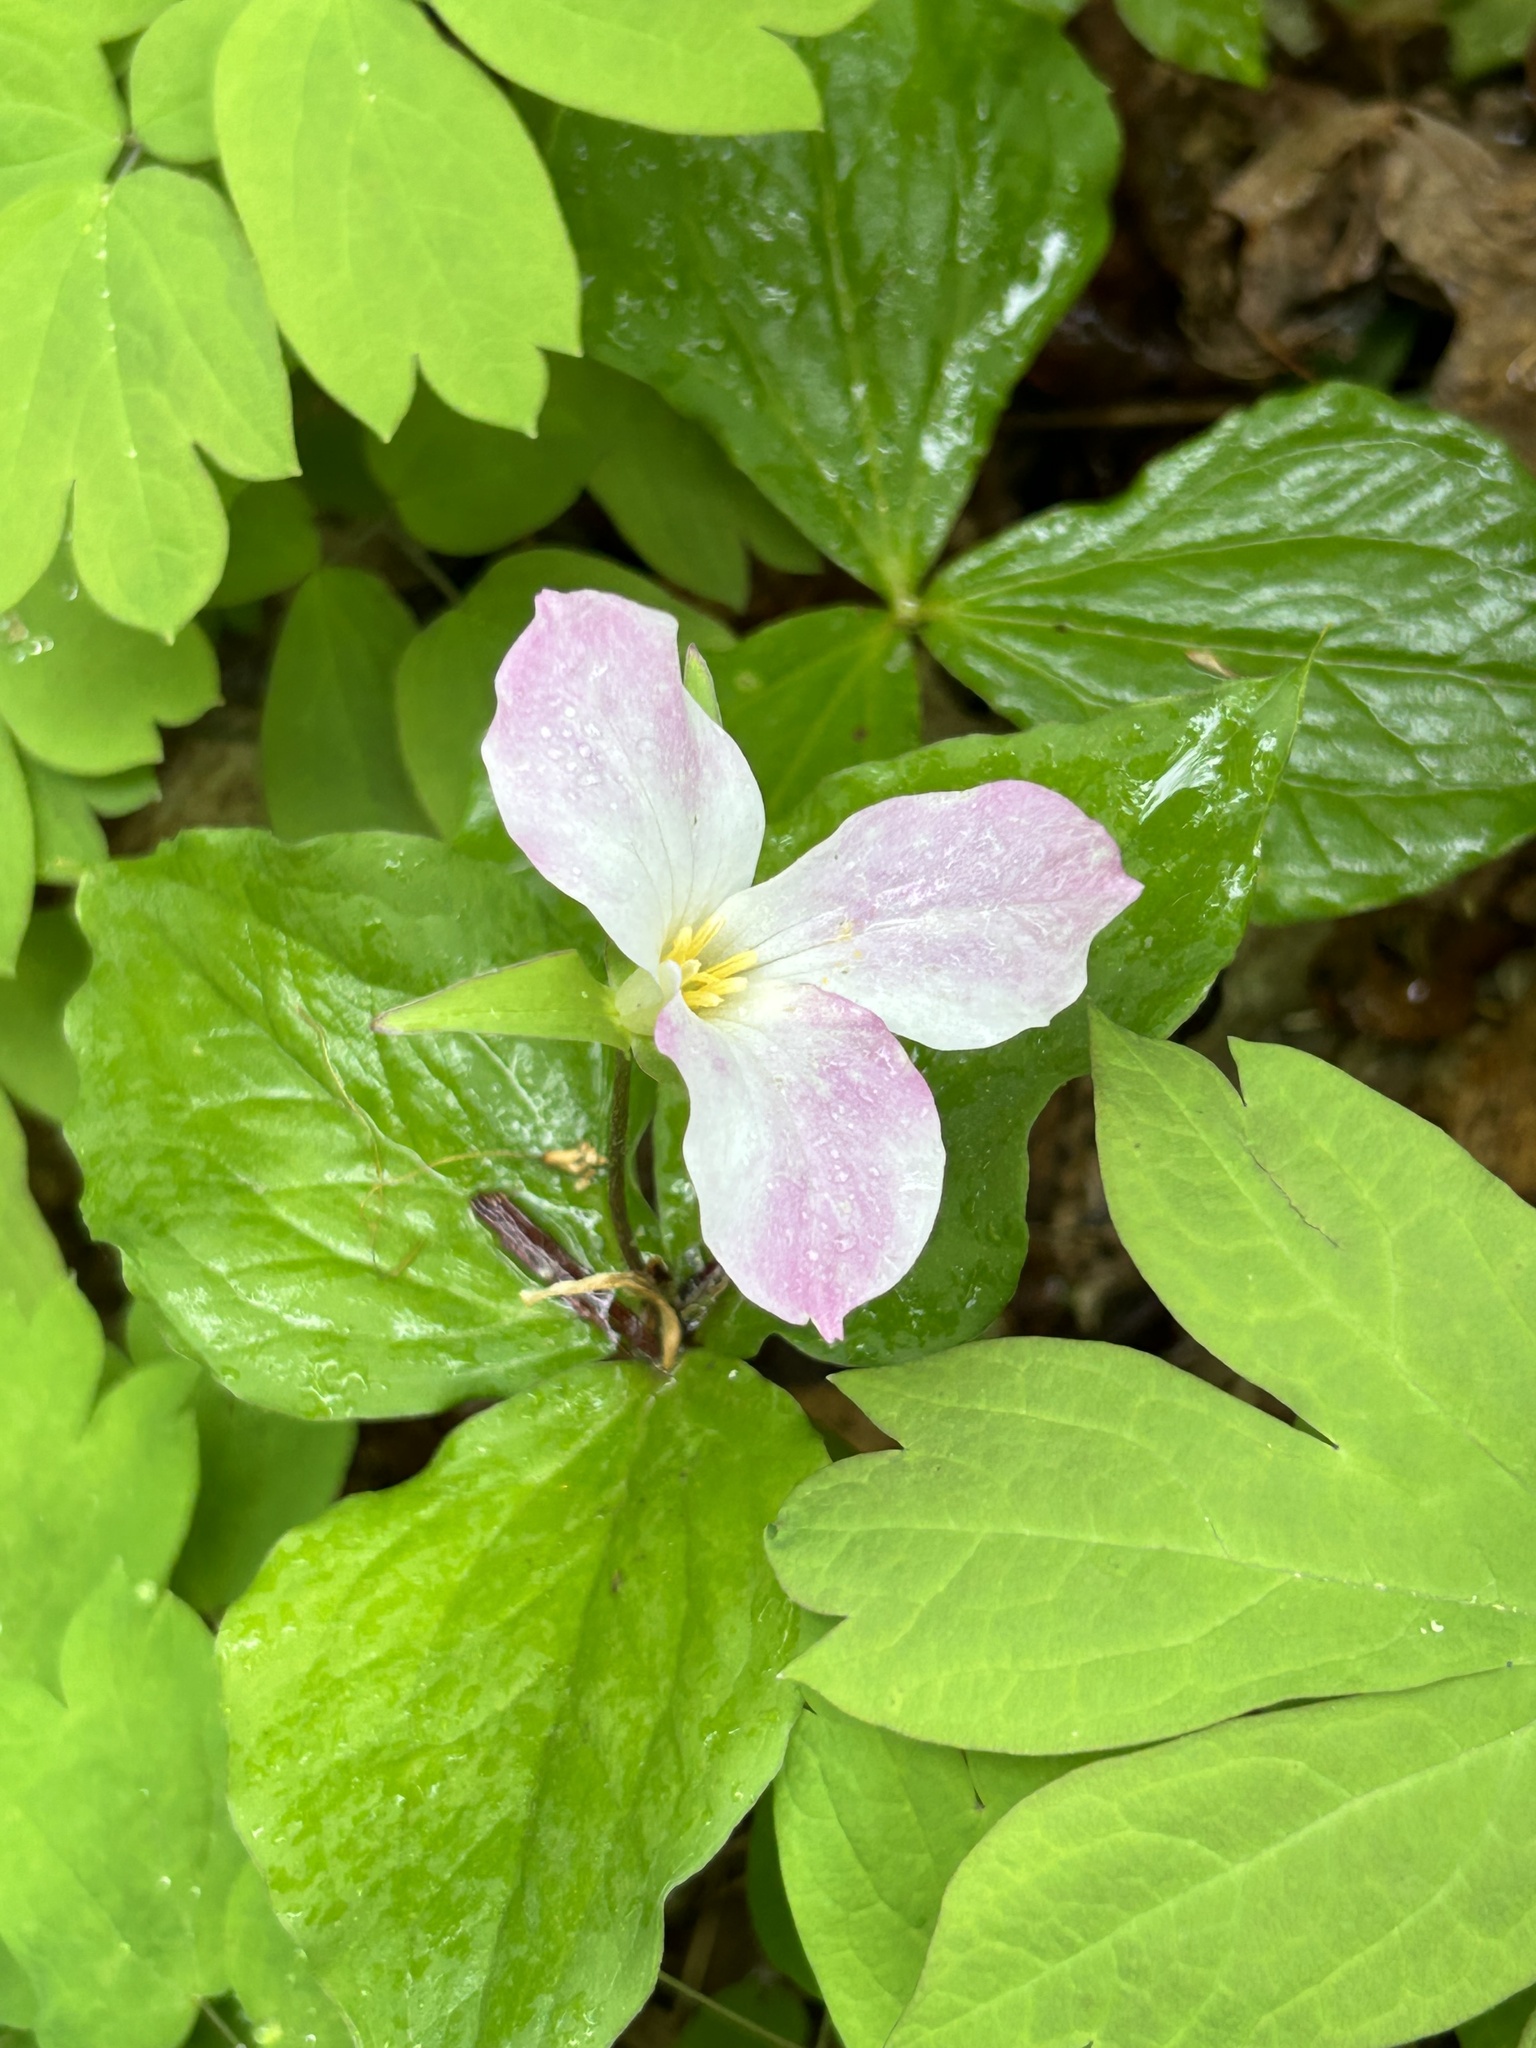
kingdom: Plantae
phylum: Tracheophyta
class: Liliopsida
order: Liliales
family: Melanthiaceae
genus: Trillium
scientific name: Trillium grandiflorum
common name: Great white trillium
